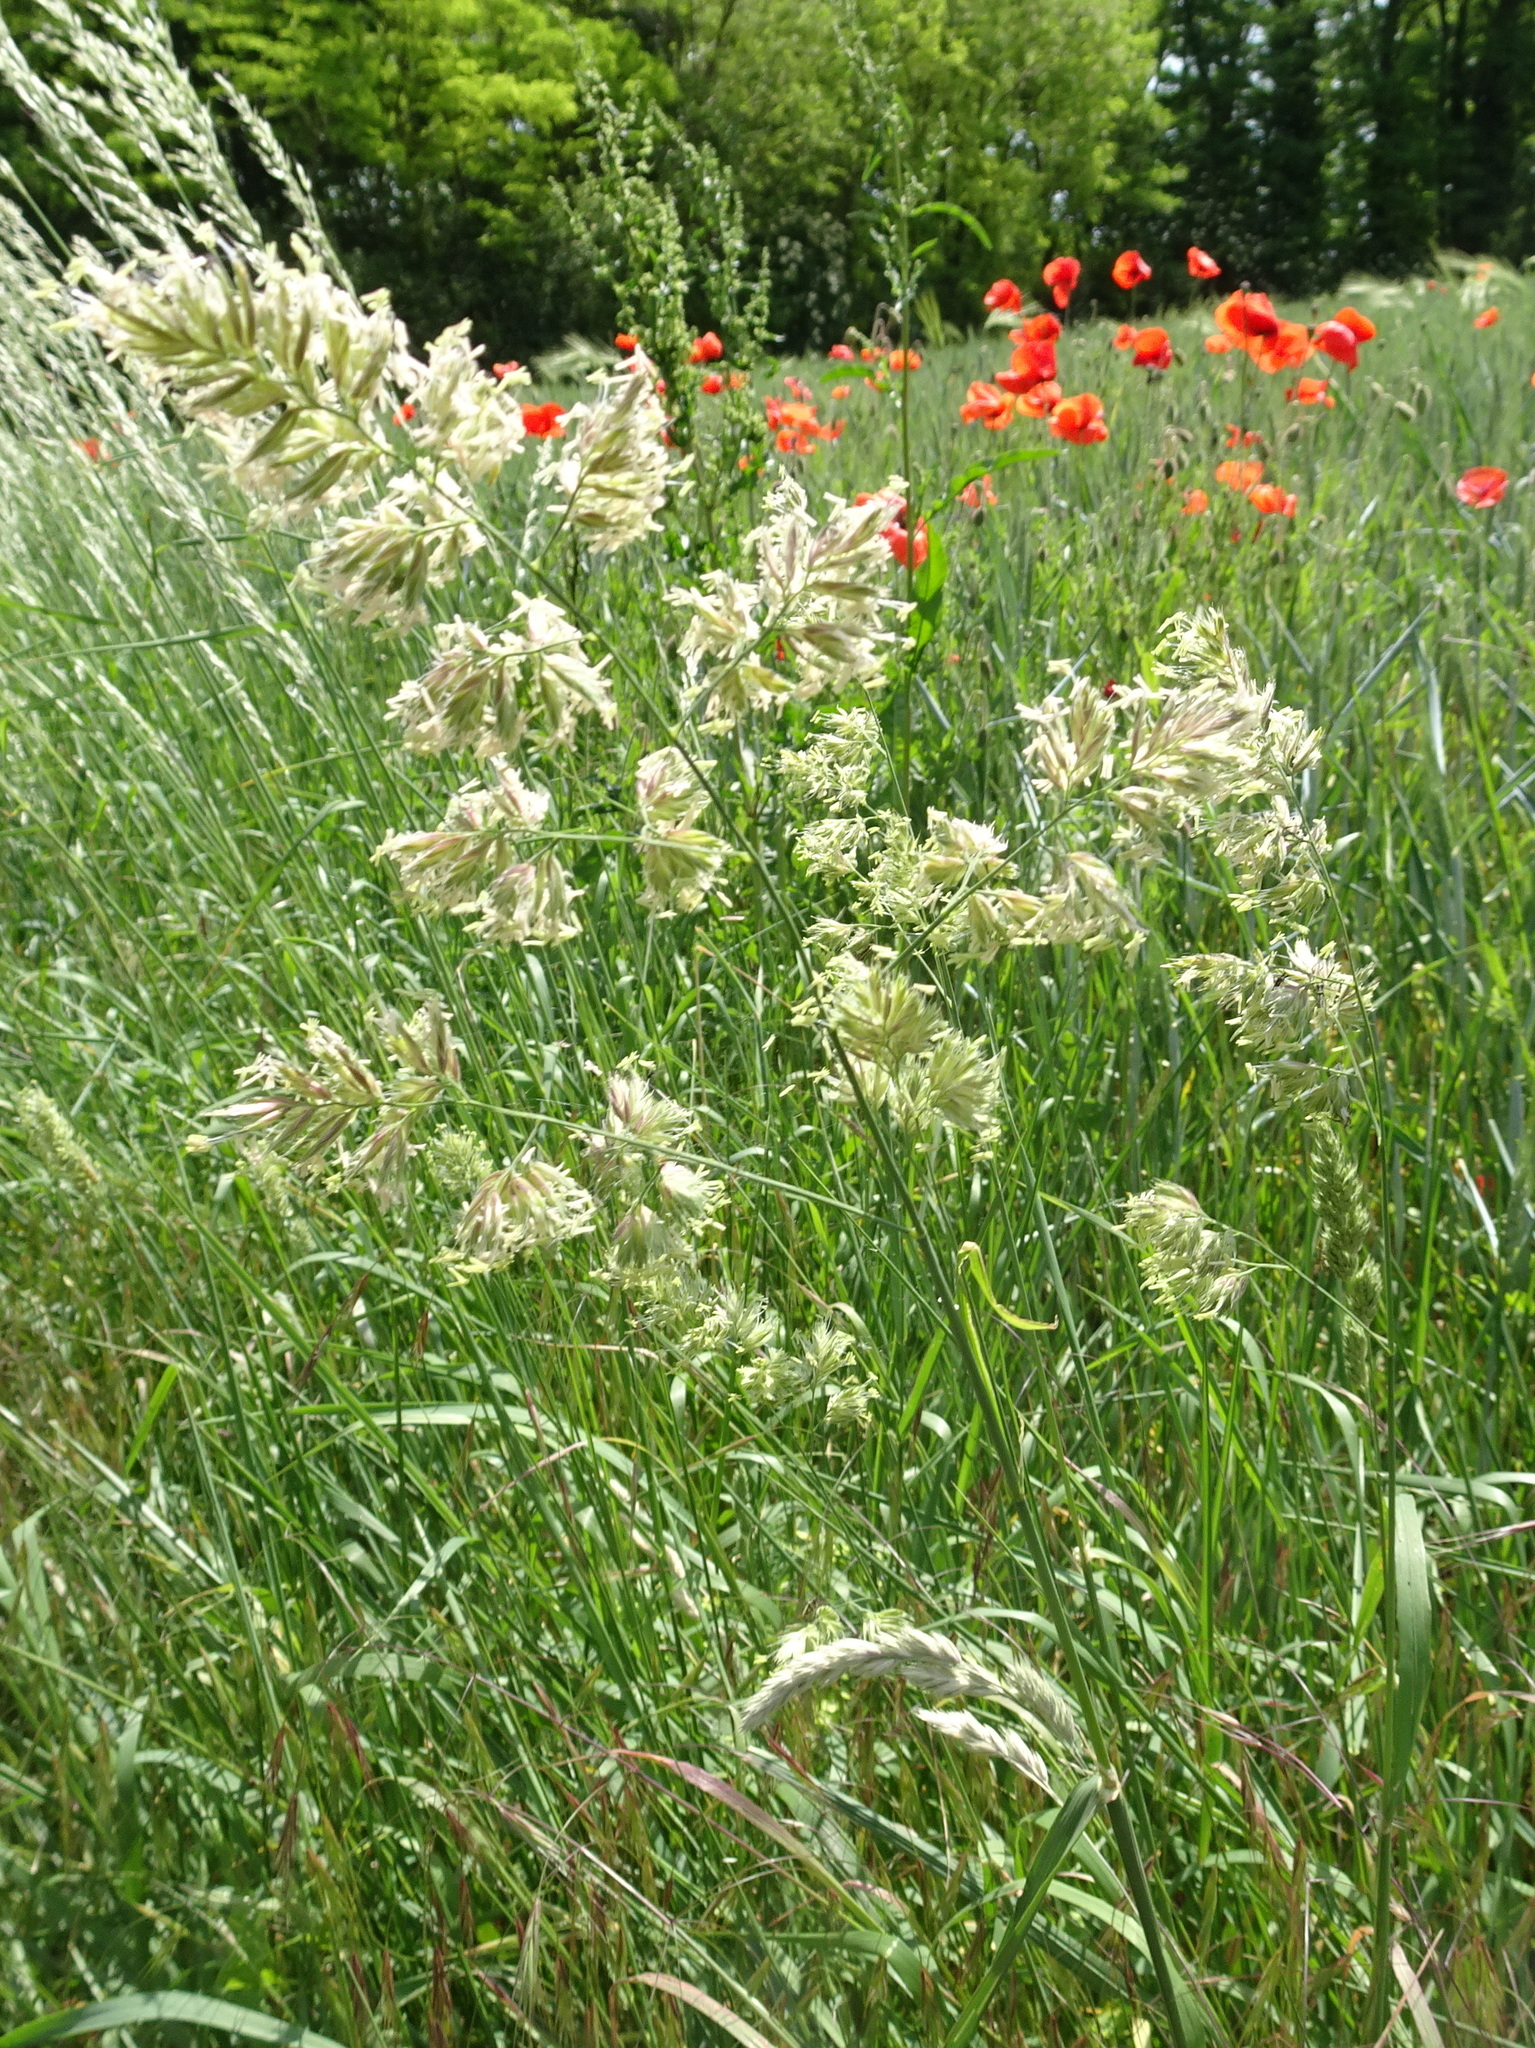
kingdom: Plantae
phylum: Tracheophyta
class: Liliopsida
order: Poales
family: Poaceae
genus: Dactylis
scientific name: Dactylis glomerata
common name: Orchardgrass
